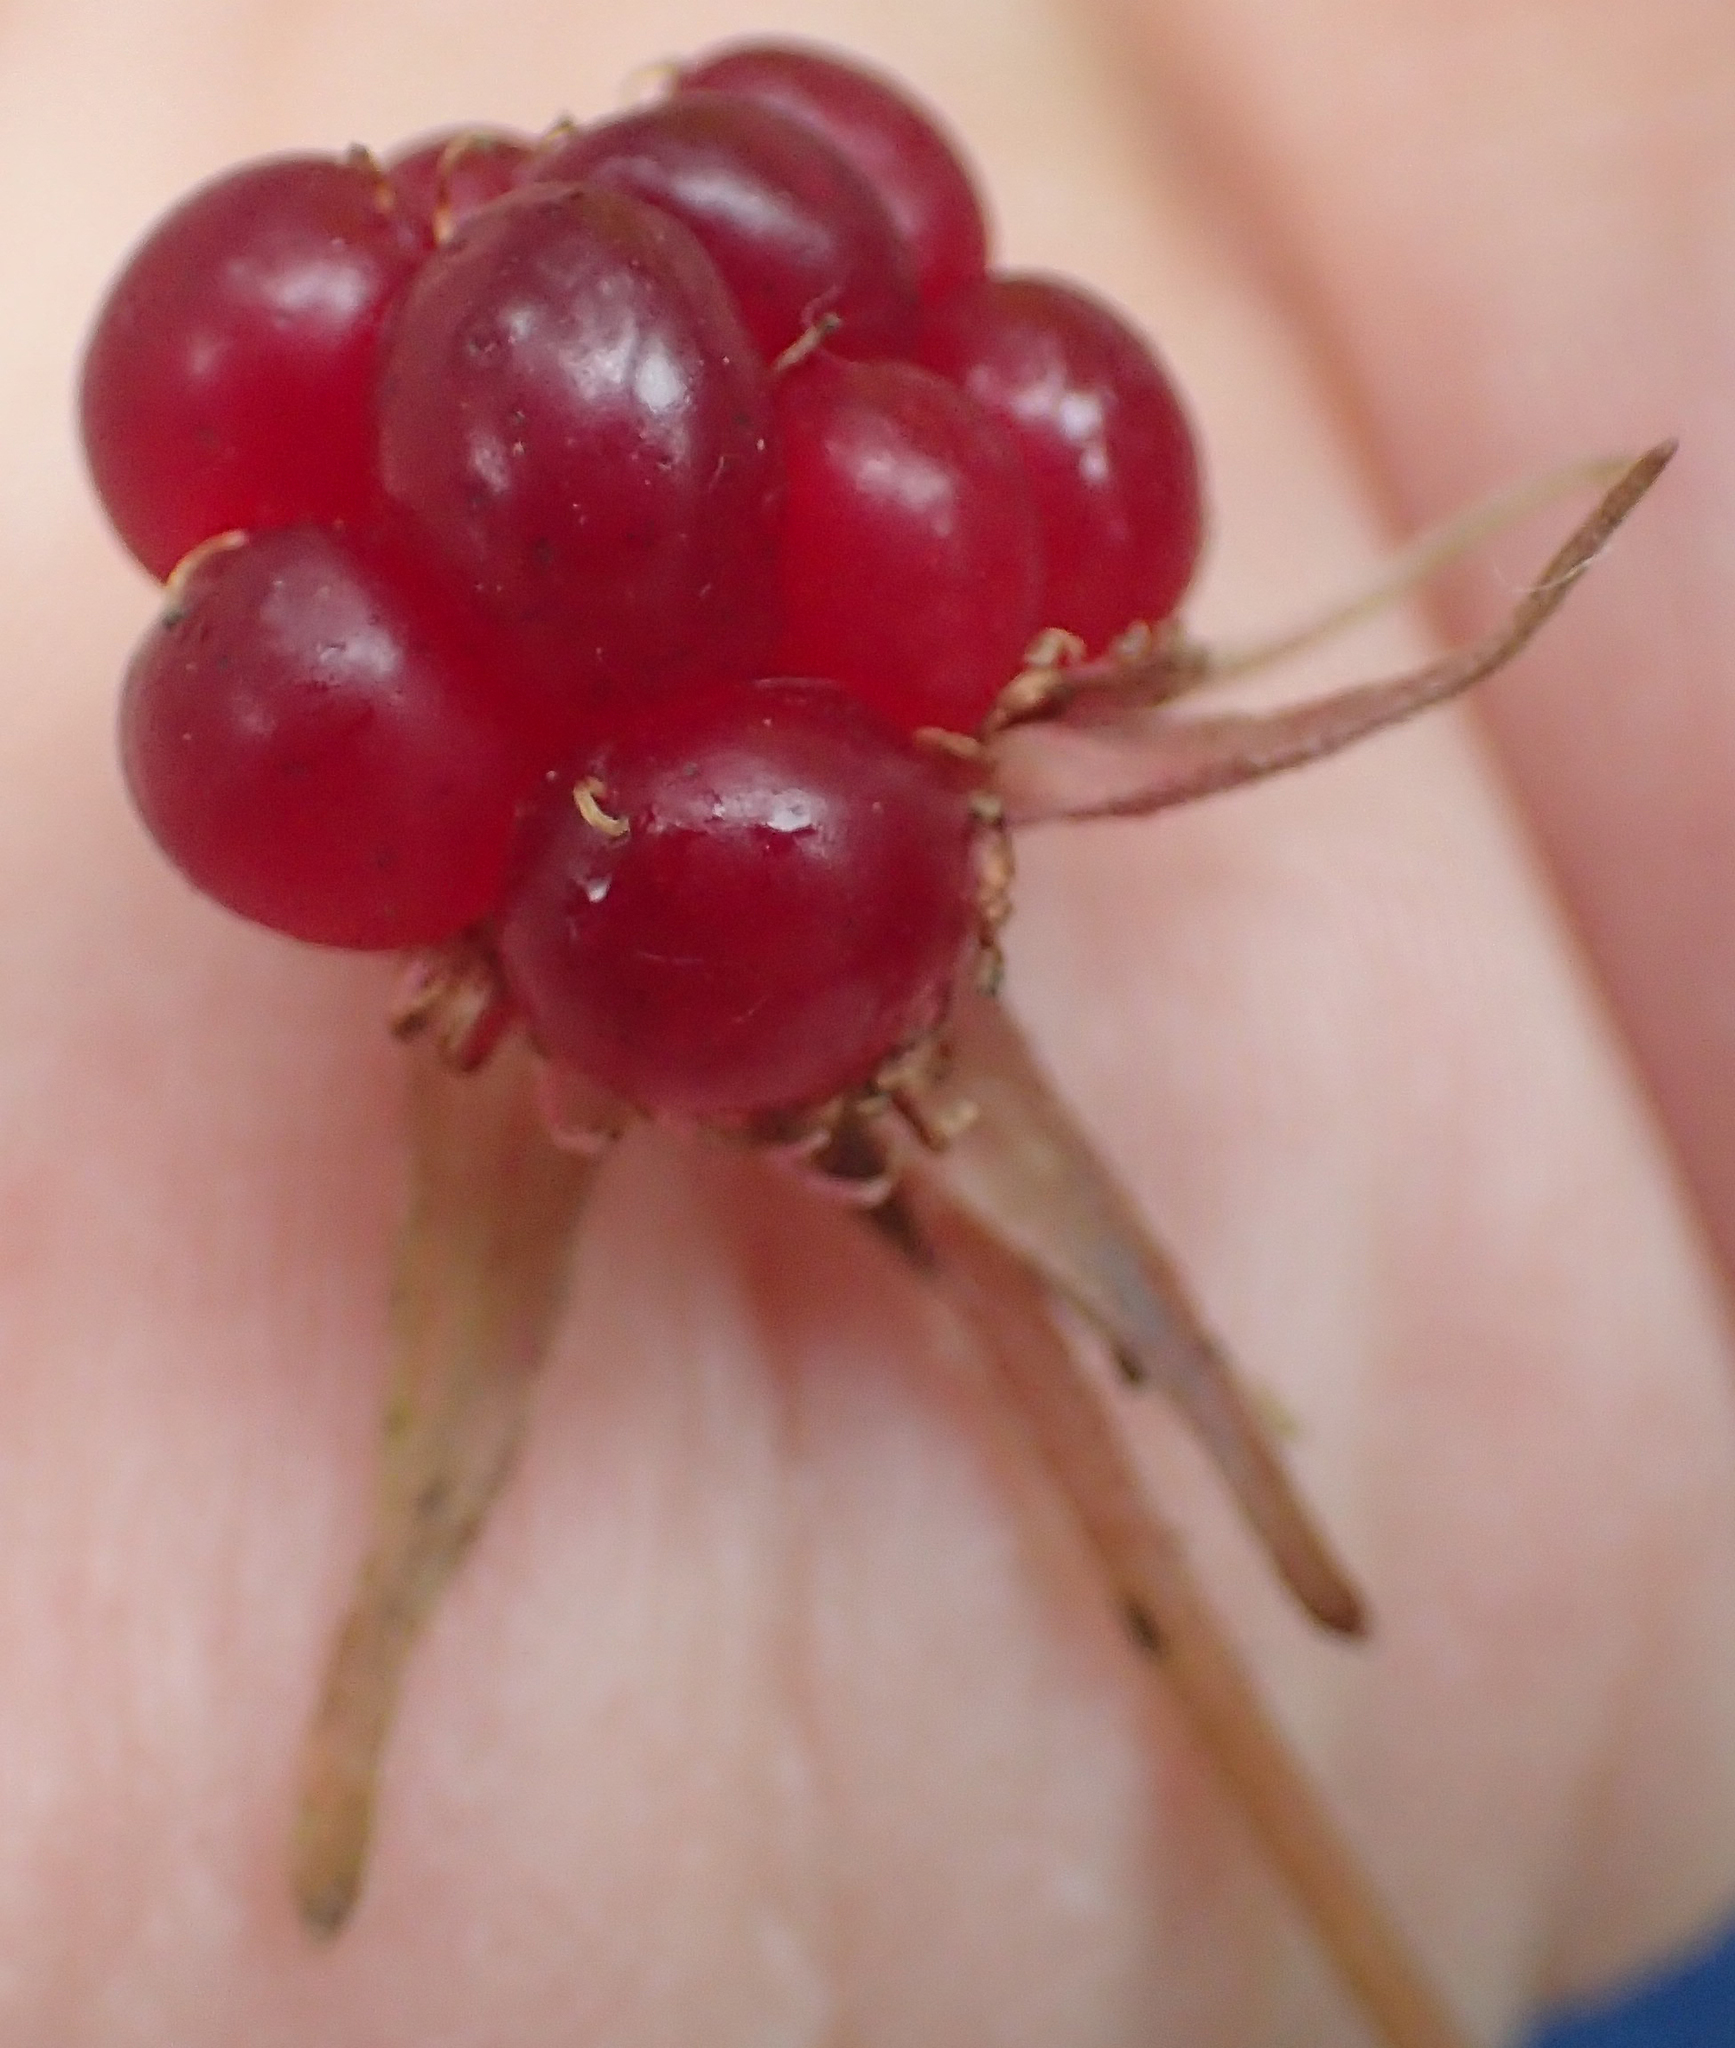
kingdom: Plantae
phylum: Tracheophyta
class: Magnoliopsida
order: Rosales
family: Rosaceae
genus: Rubus
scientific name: Rubus arcticus
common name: Arctic bramble
